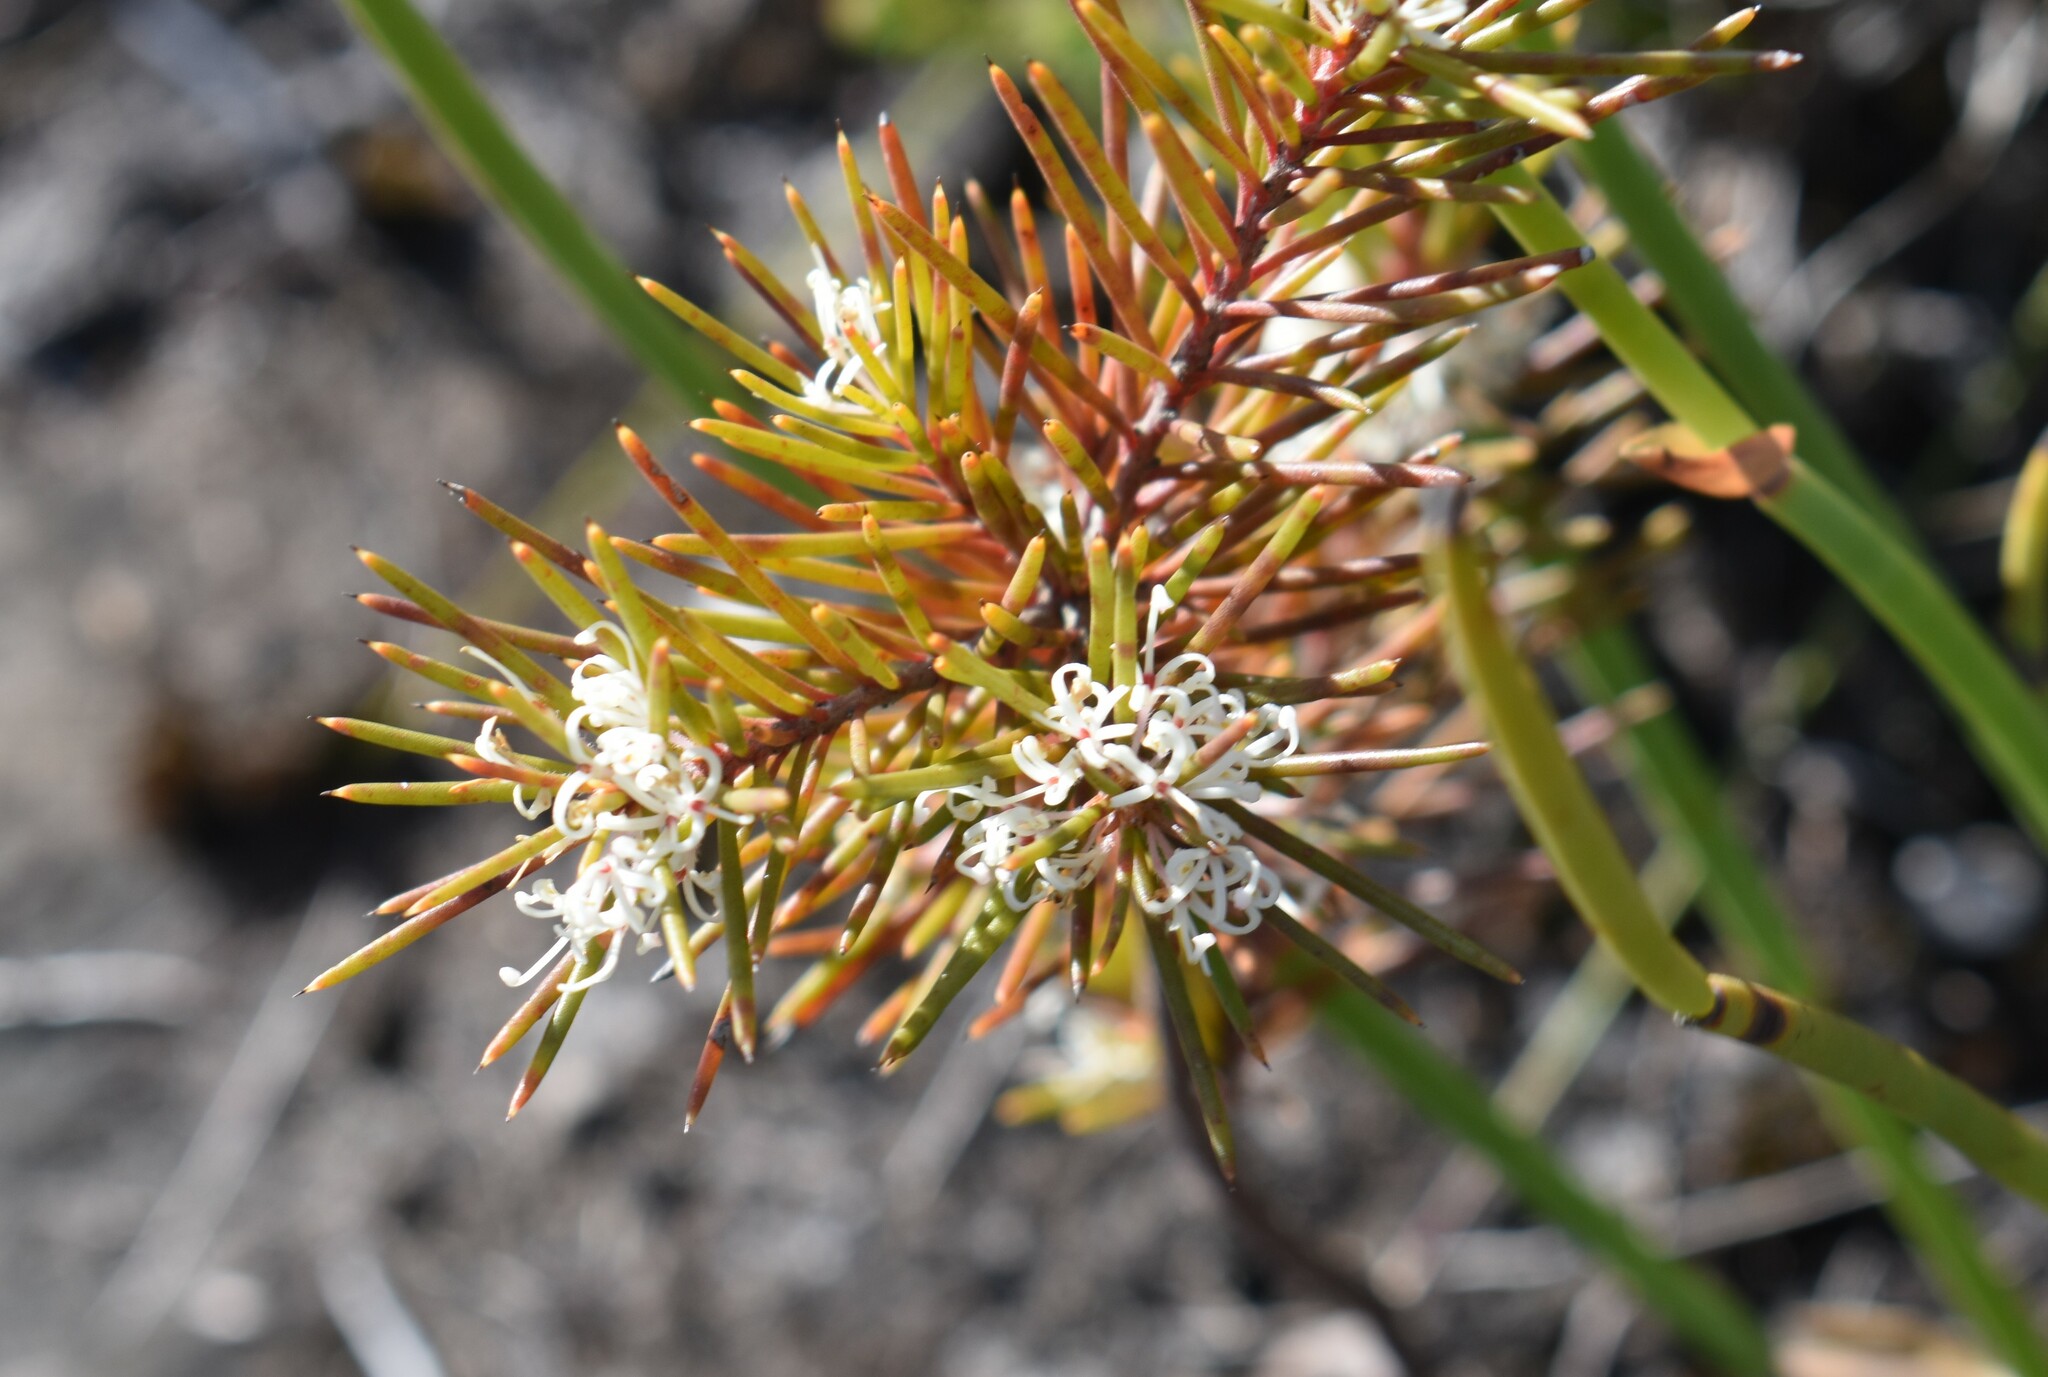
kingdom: Plantae
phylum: Tracheophyta
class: Magnoliopsida
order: Proteales
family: Proteaceae
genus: Hakea
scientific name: Hakea sericea
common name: Needle bush
